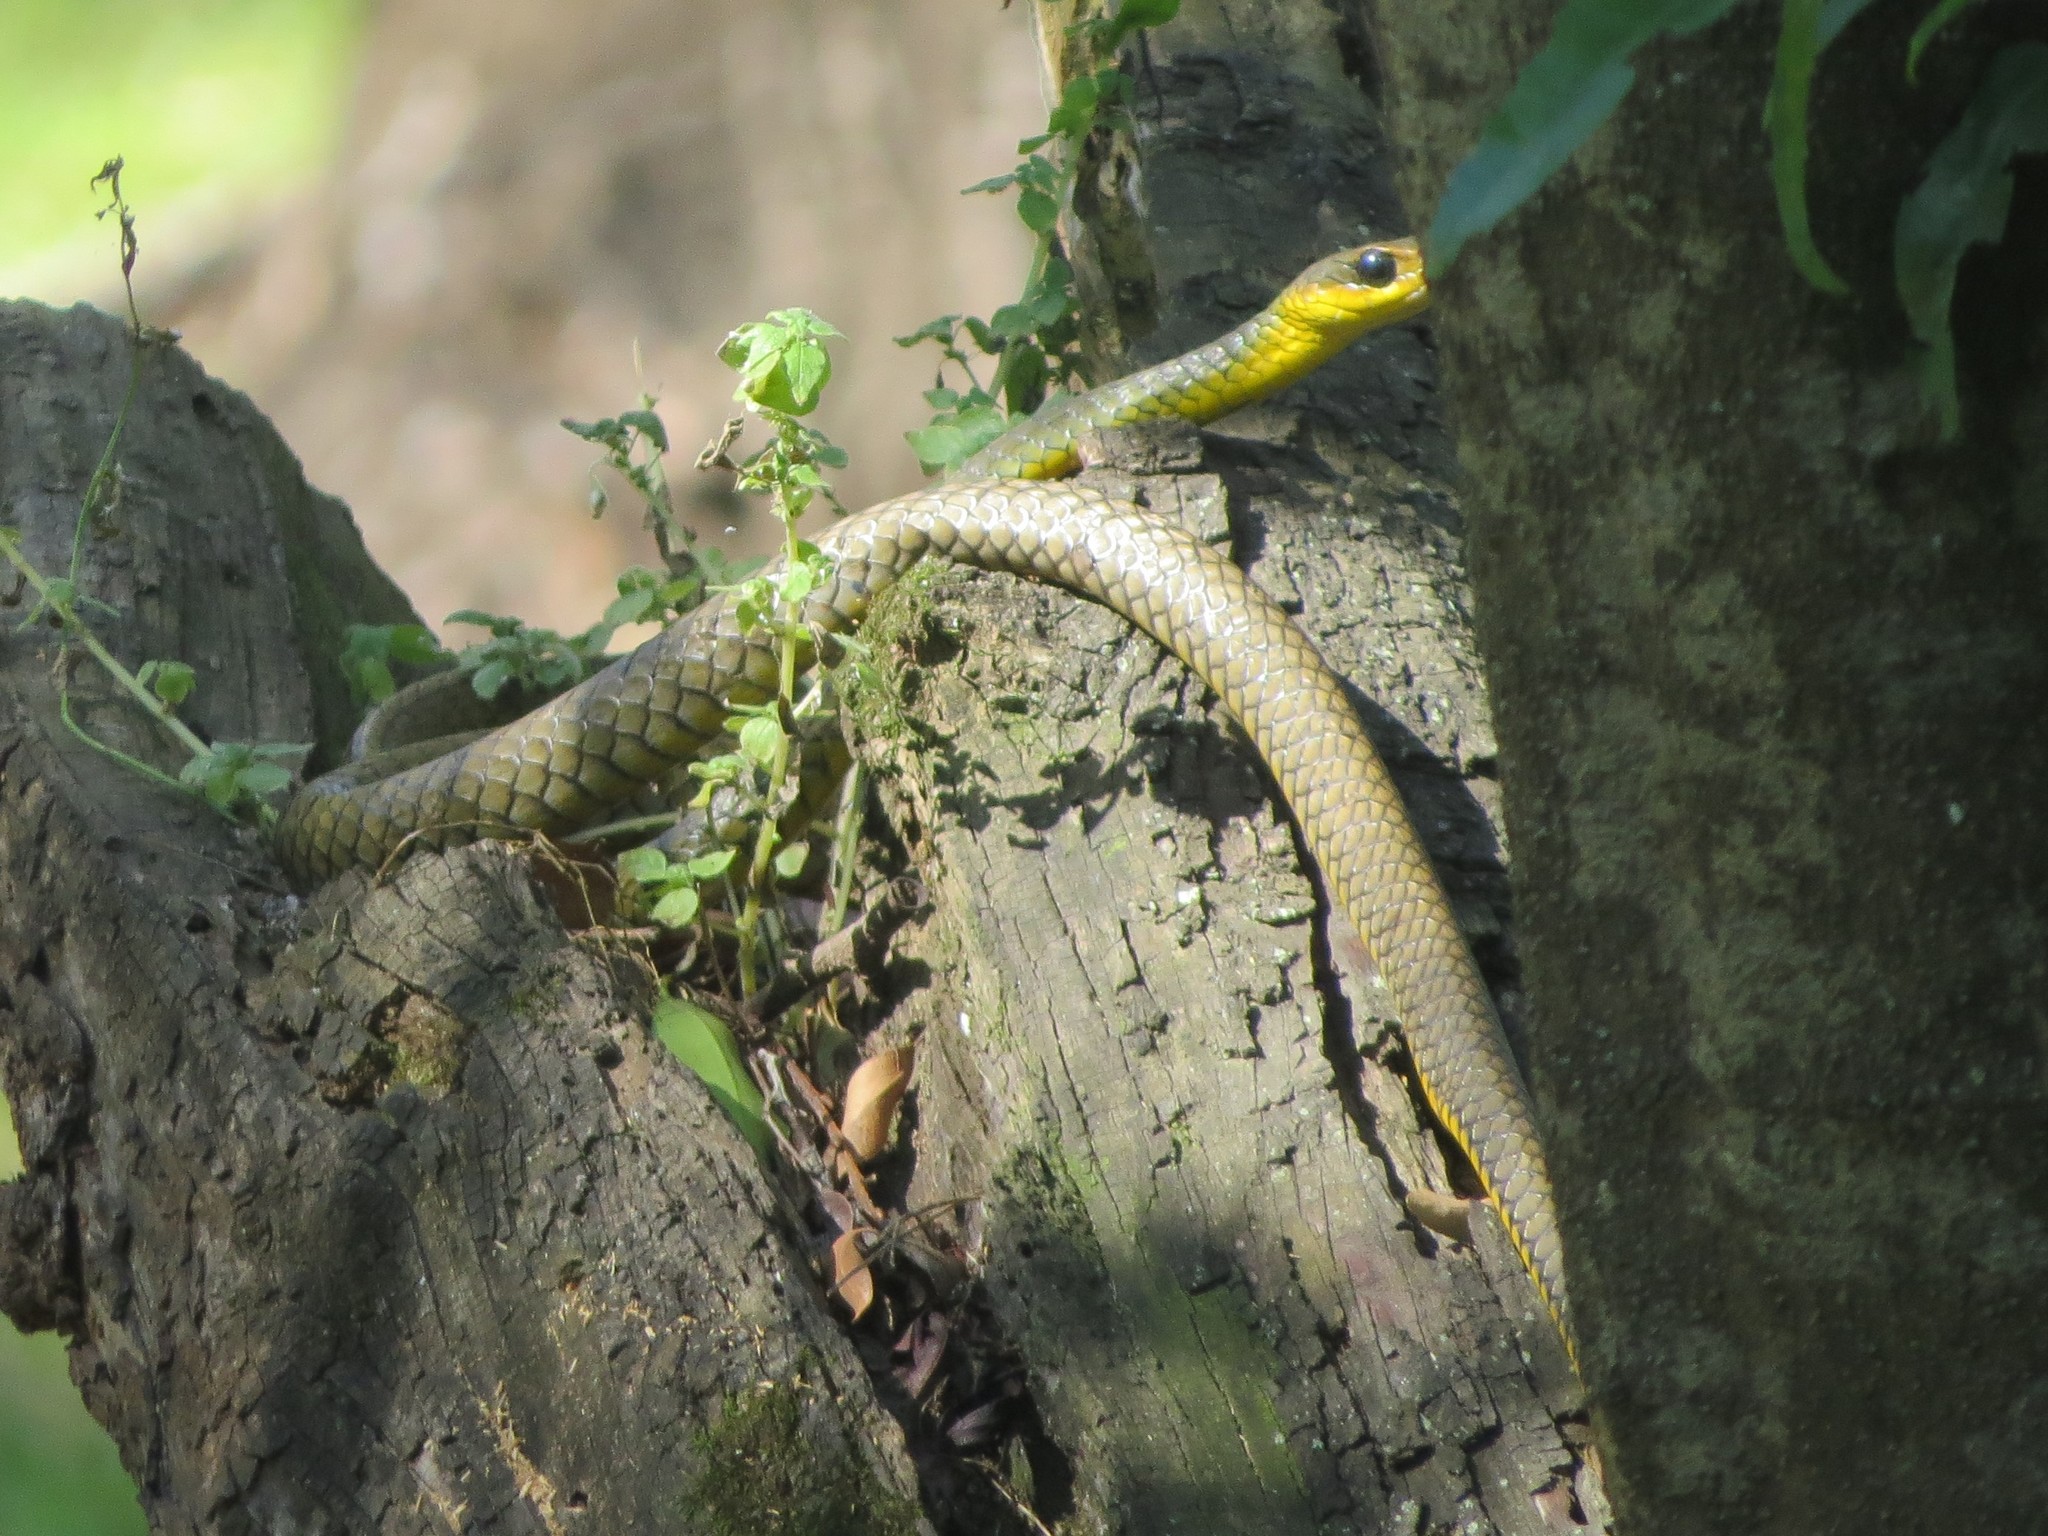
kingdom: Animalia
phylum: Chordata
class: Squamata
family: Colubridae
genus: Chironius
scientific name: Chironius gouveai
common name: Gouvea’s sipo
